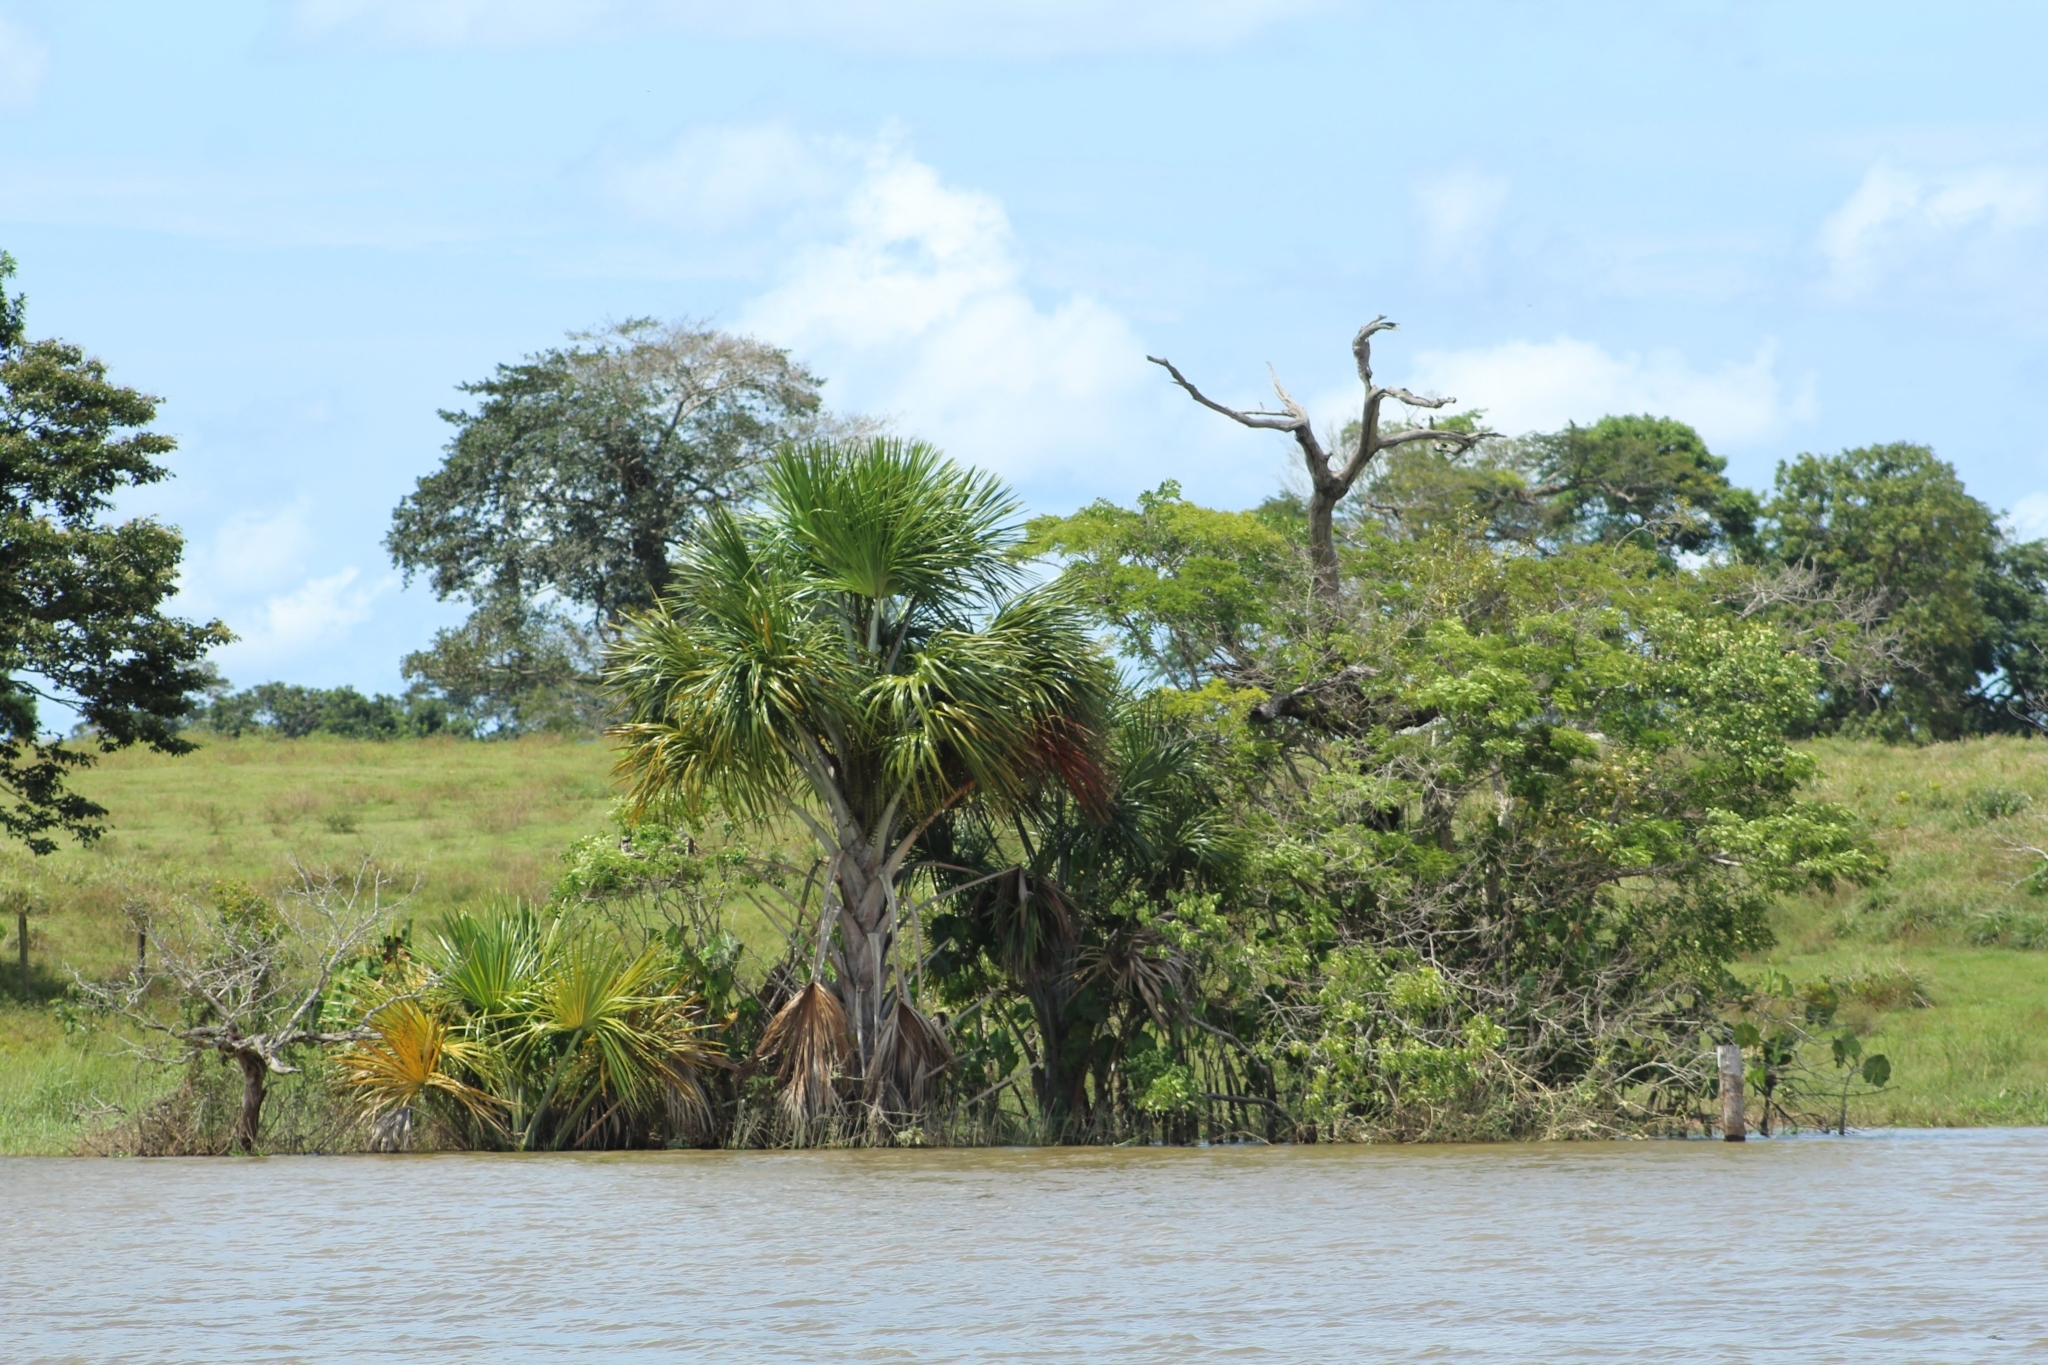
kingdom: Plantae
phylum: Tracheophyta
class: Liliopsida
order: Arecales
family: Arecaceae
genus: Mauritia
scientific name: Mauritia flexuosa
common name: Tree-of-life
